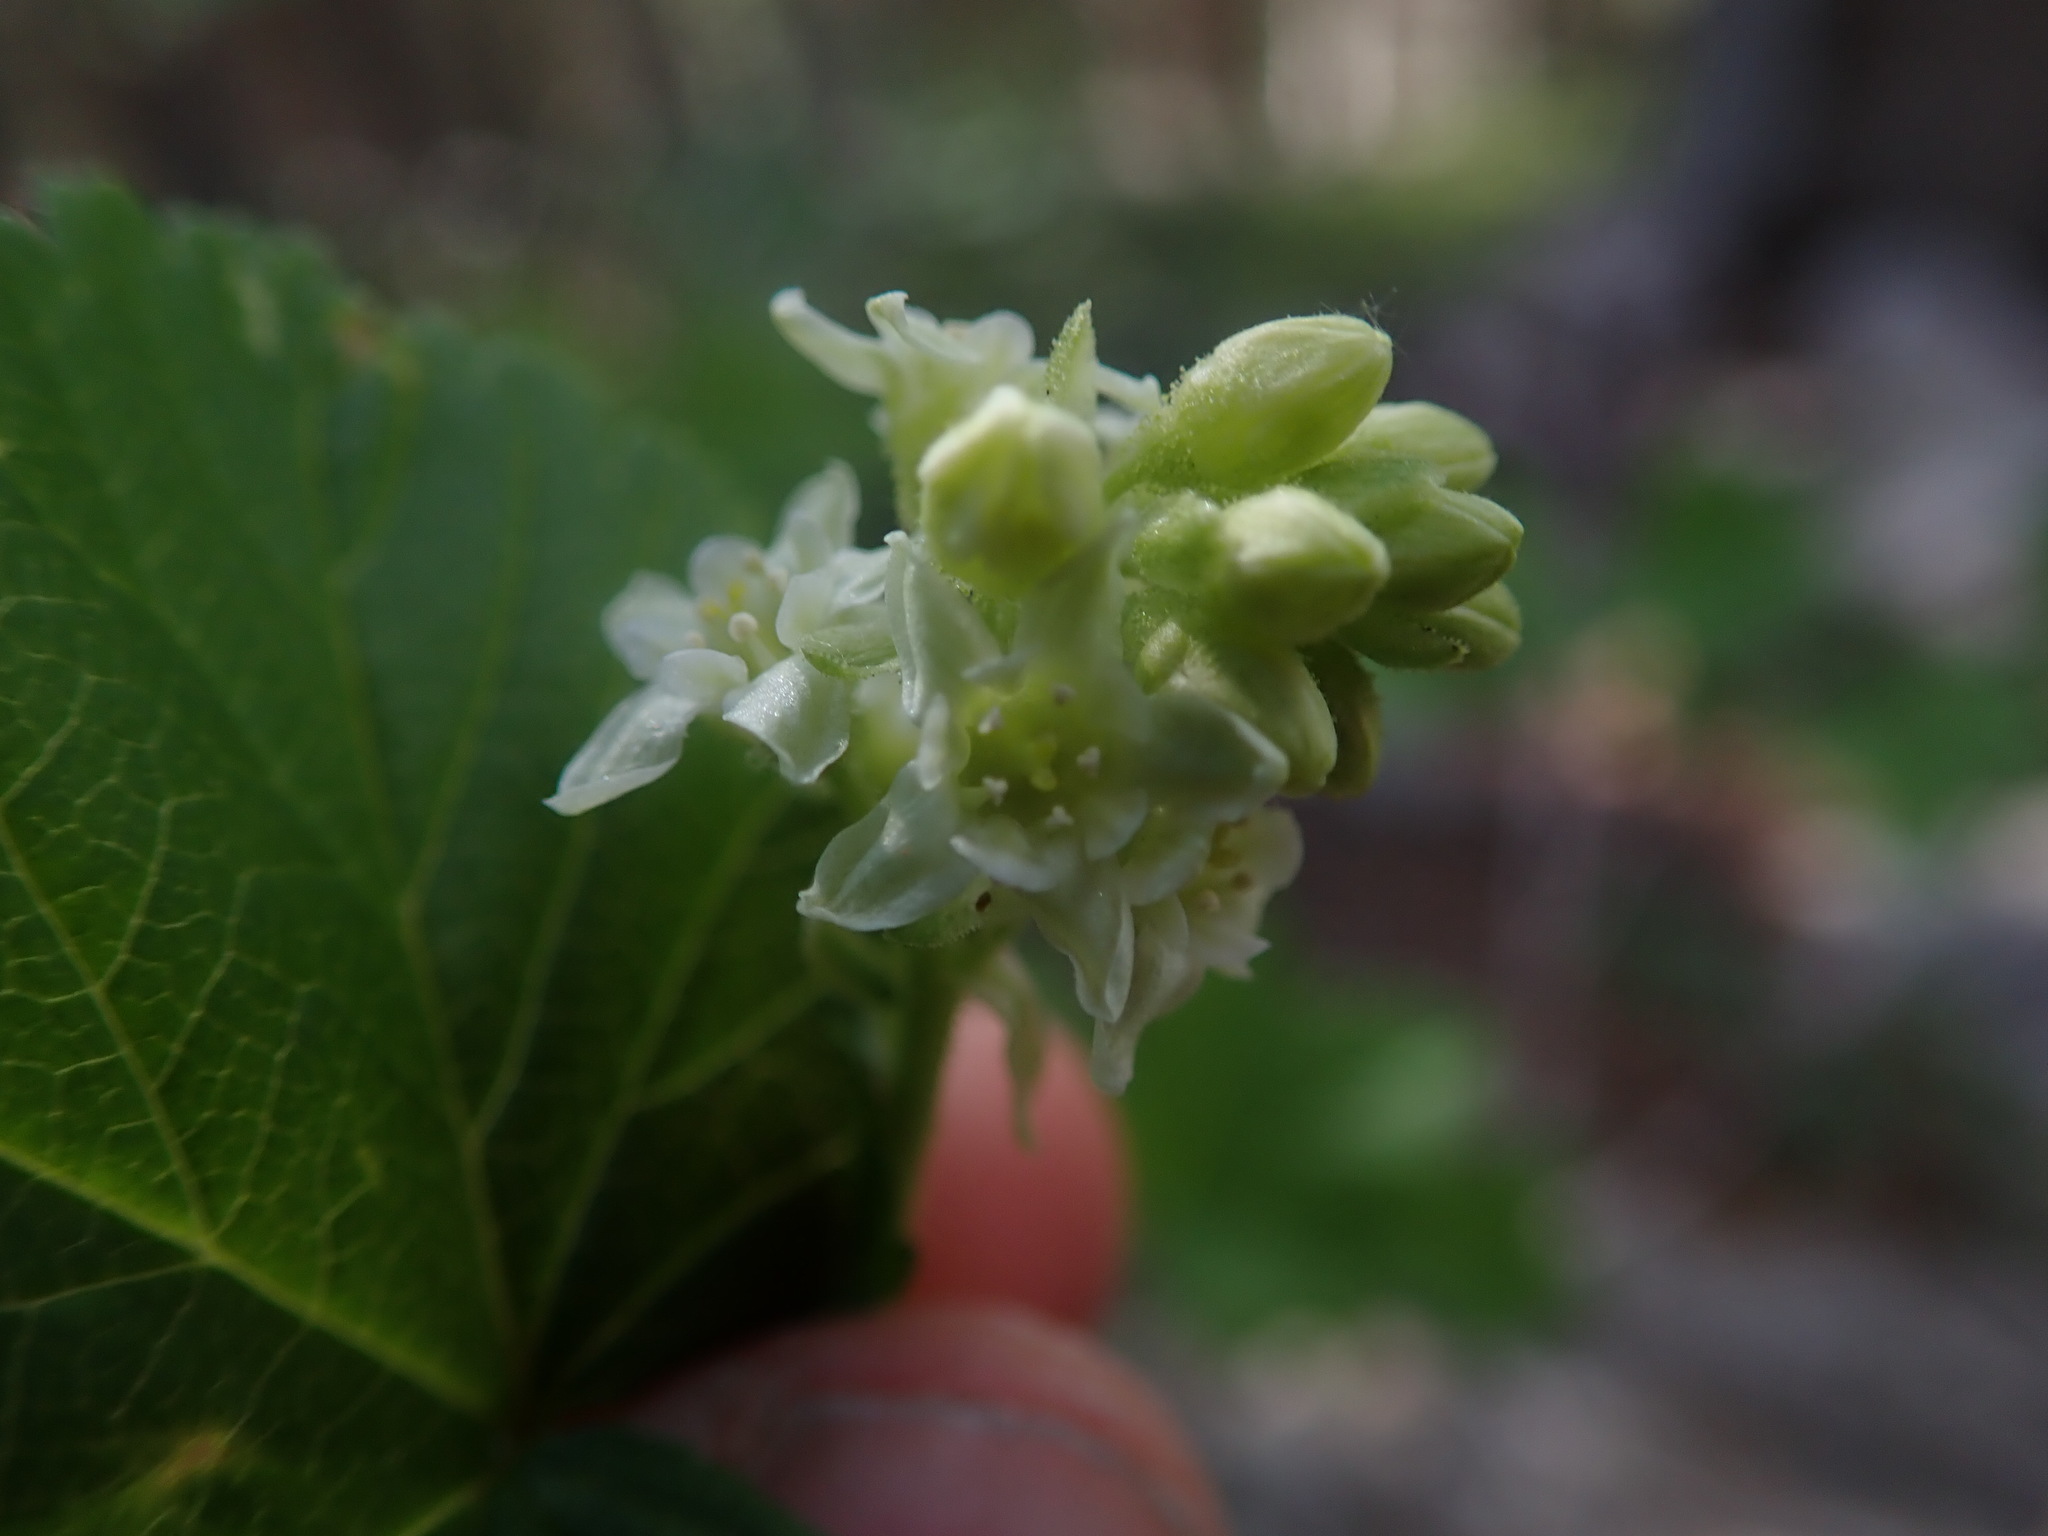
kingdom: Plantae
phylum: Tracheophyta
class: Magnoliopsida
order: Saxifragales
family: Grossulariaceae
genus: Ribes
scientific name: Ribes wolfii
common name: Rothrock currant
